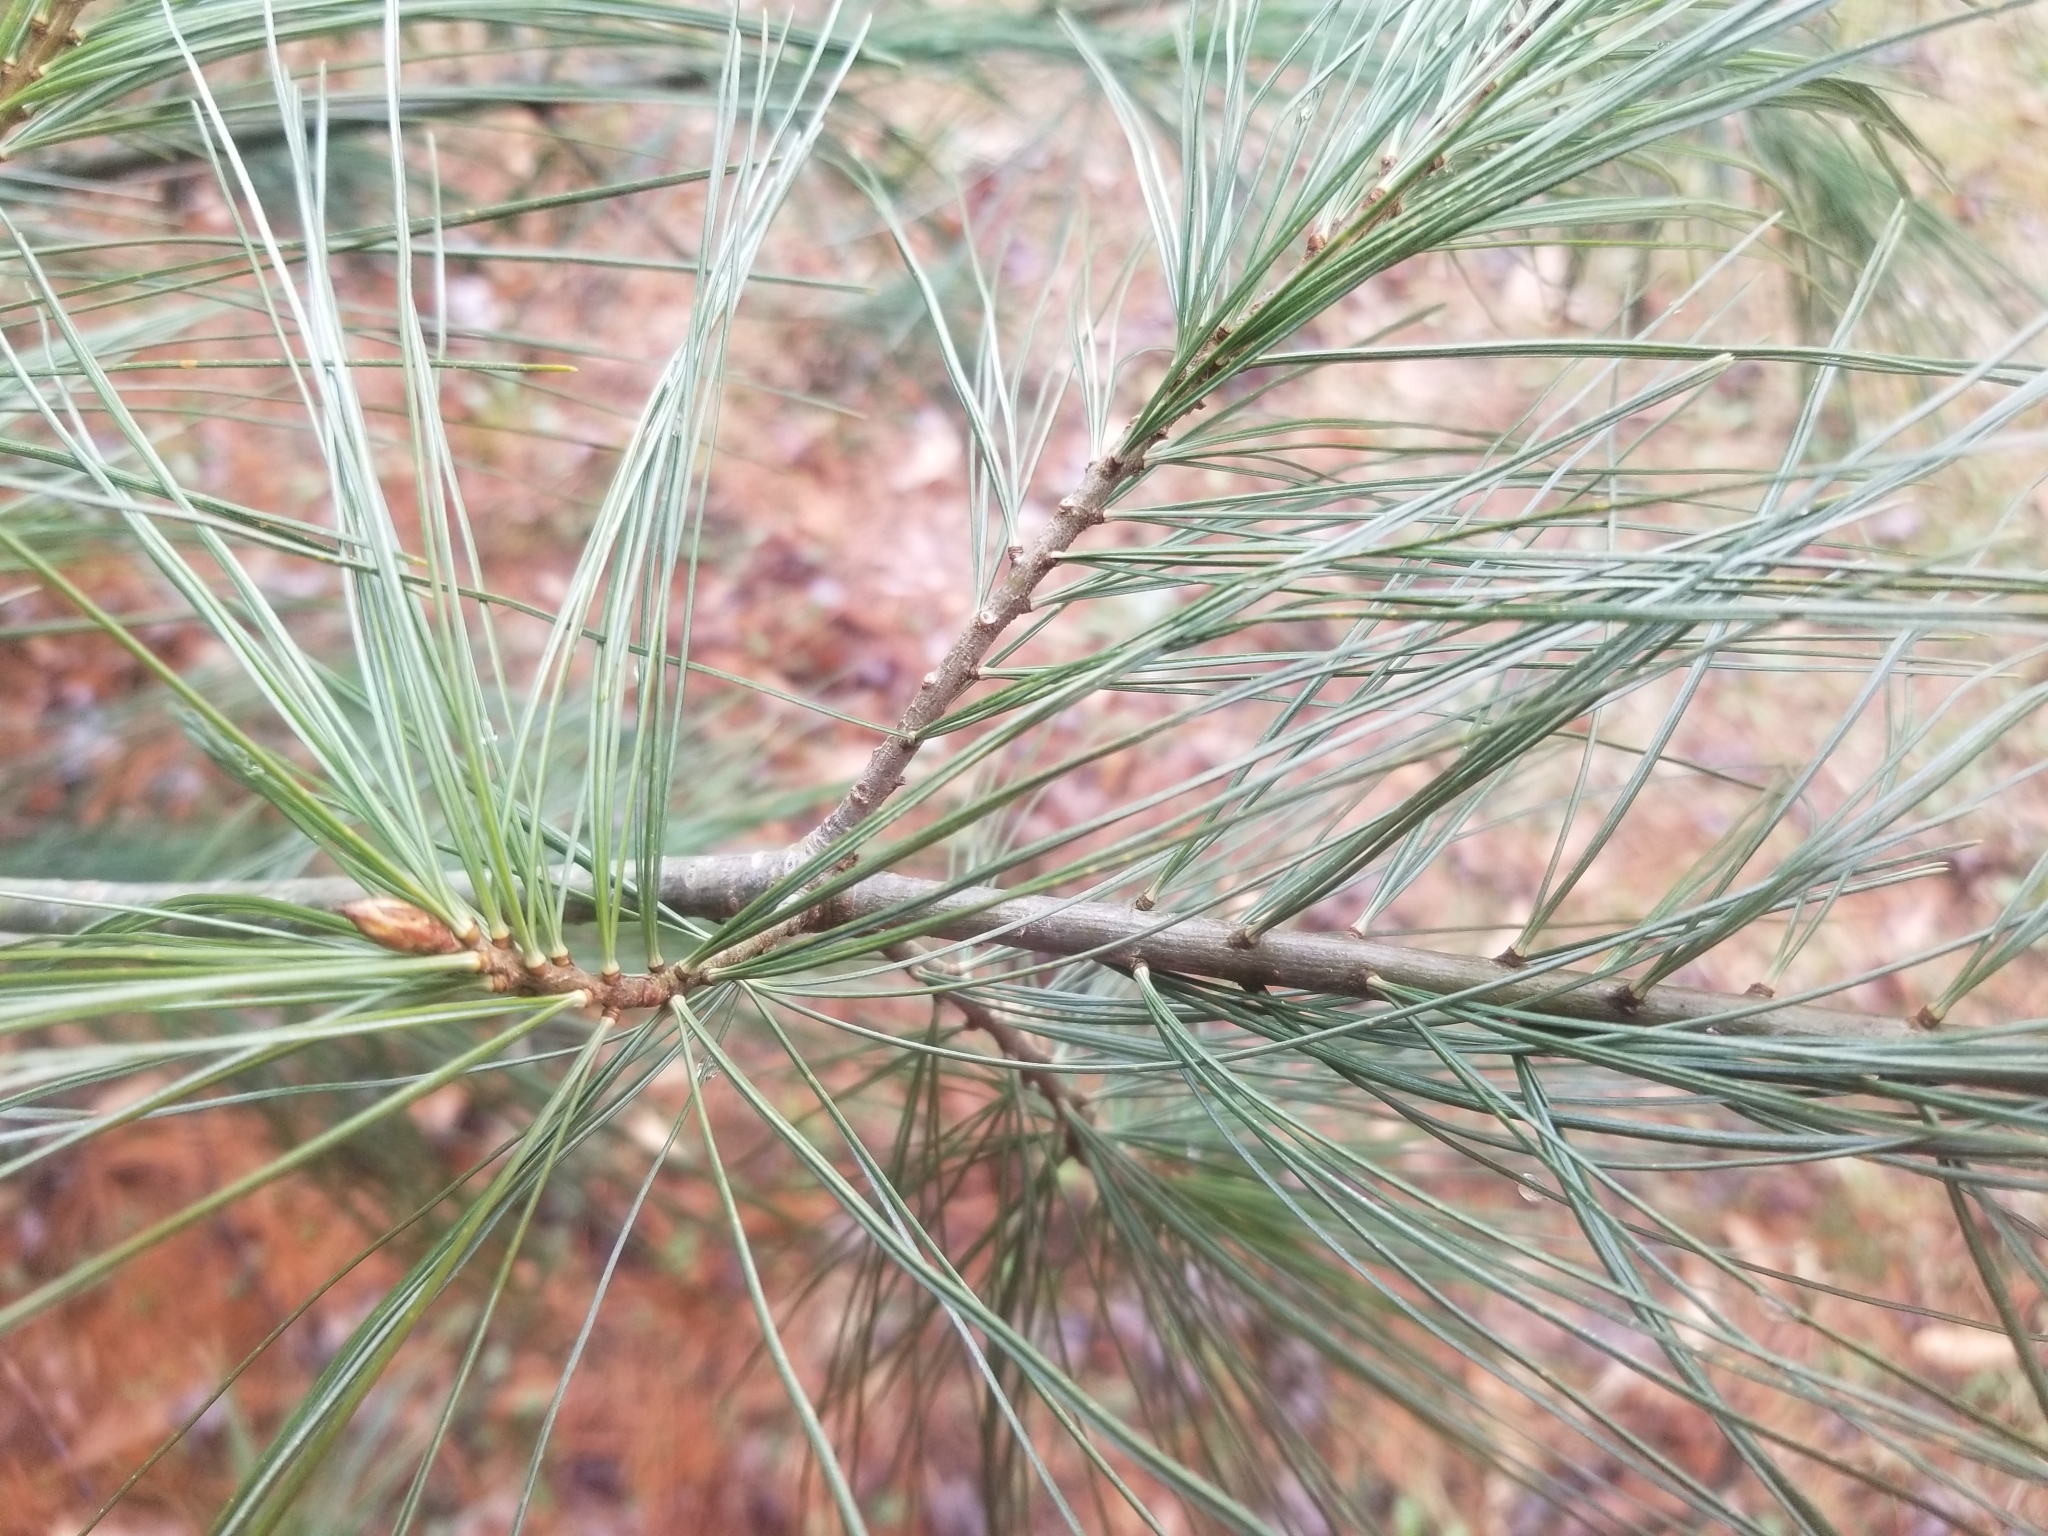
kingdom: Plantae
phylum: Tracheophyta
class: Pinopsida
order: Pinales
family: Pinaceae
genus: Pinus
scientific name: Pinus strobus
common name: Weymouth pine
